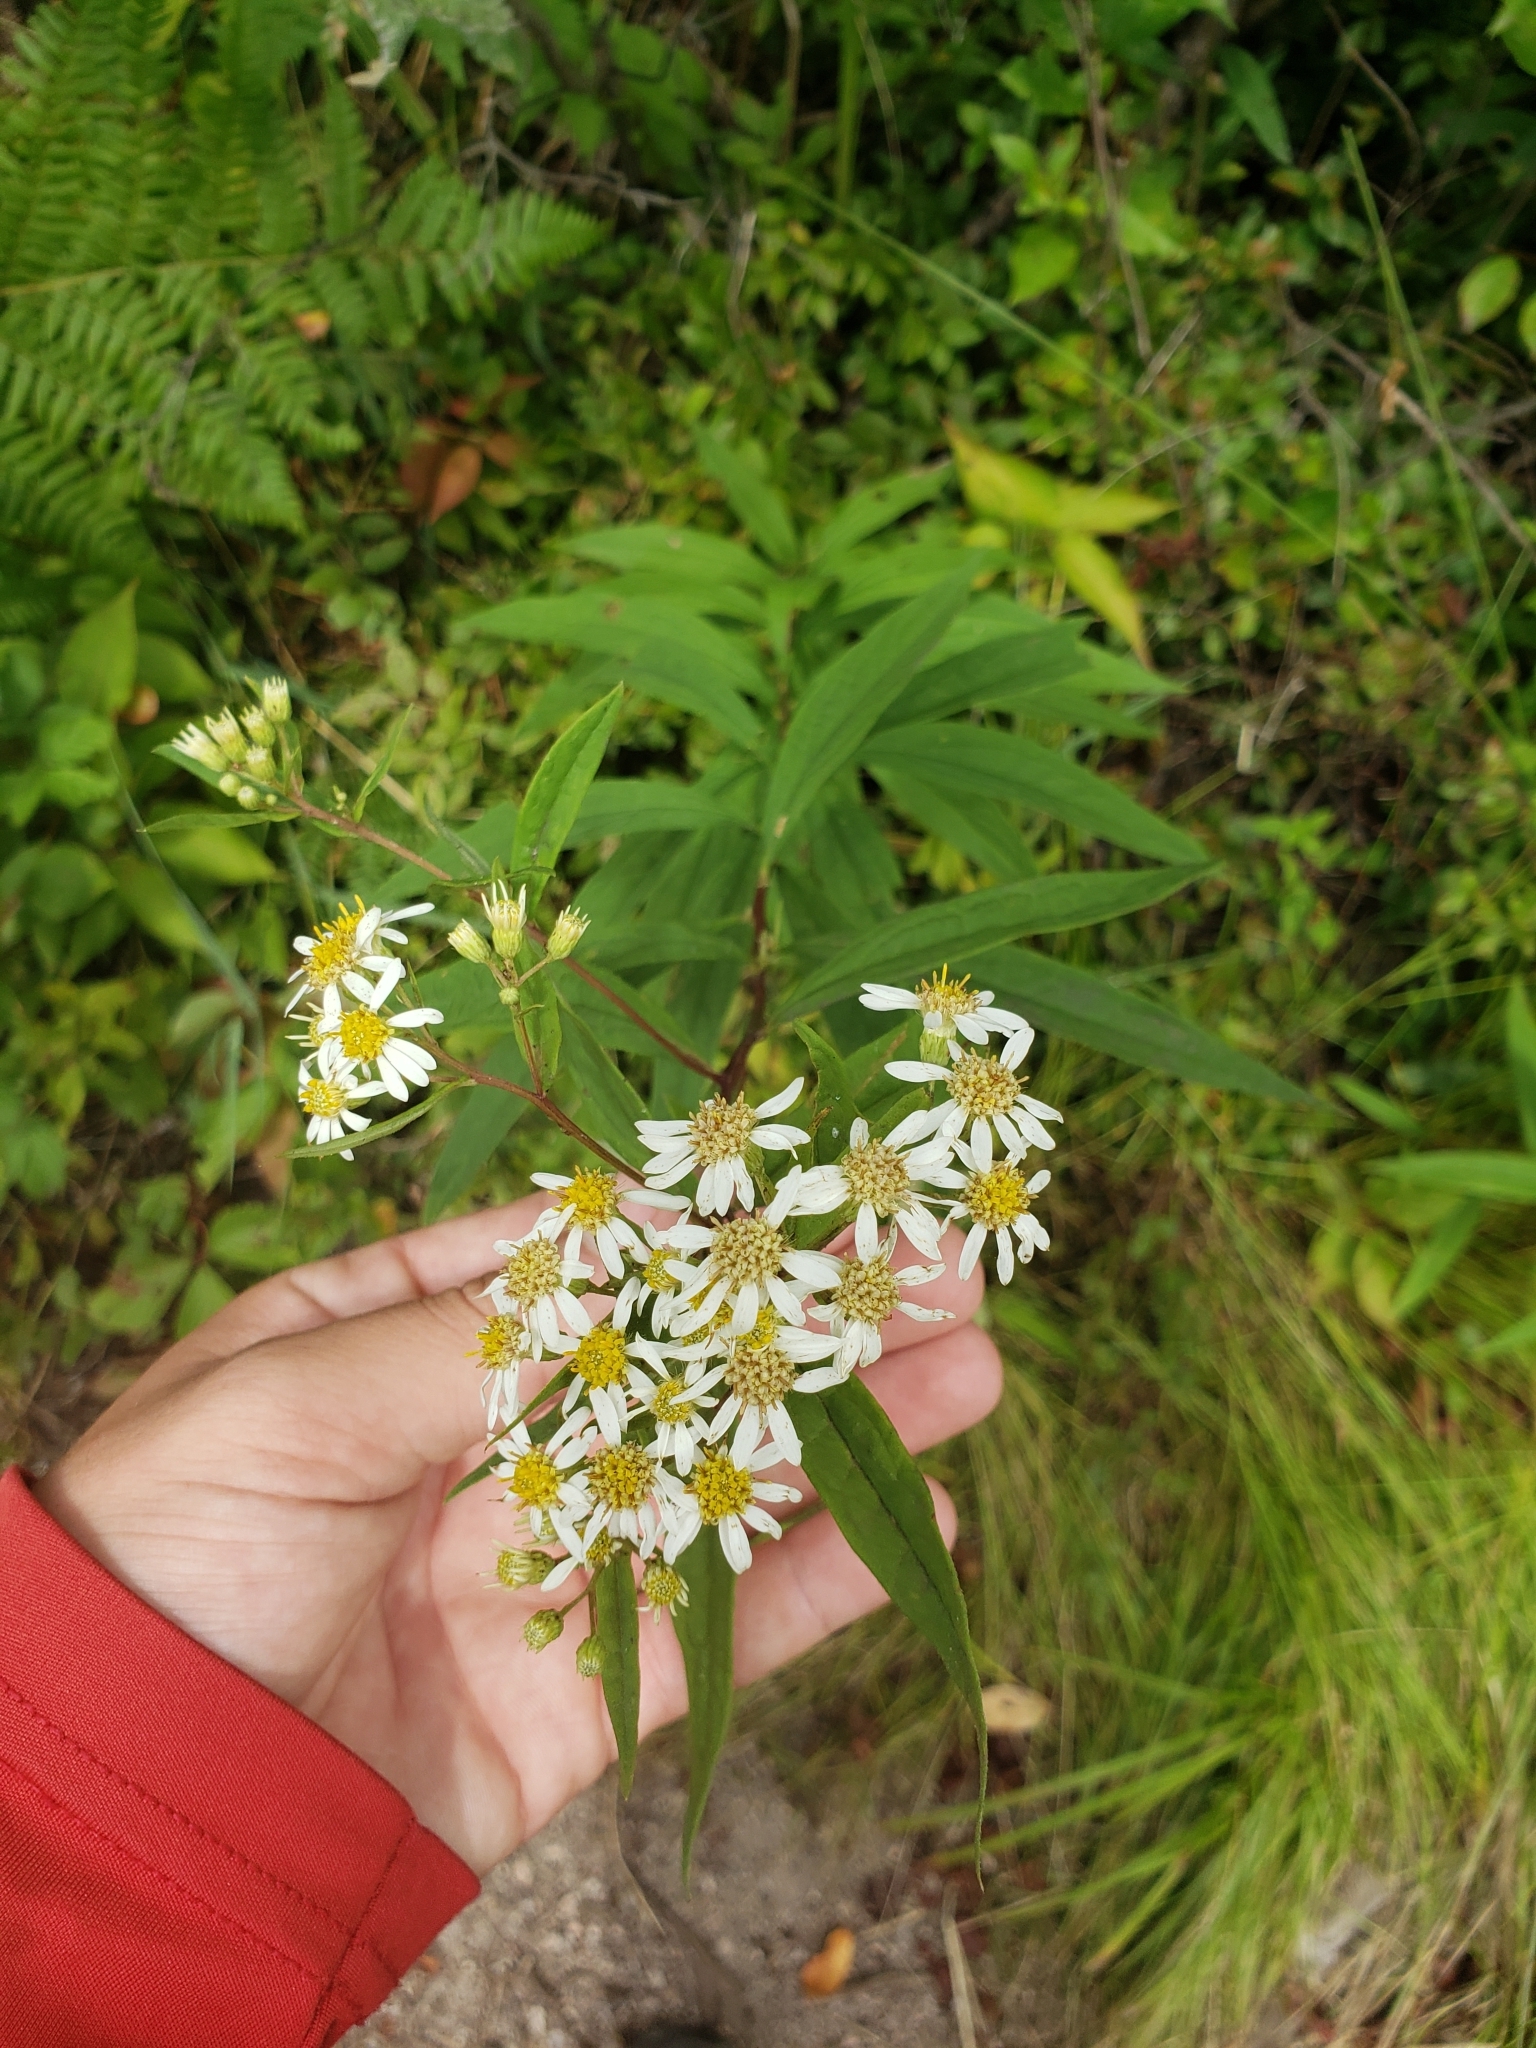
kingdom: Plantae
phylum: Tracheophyta
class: Magnoliopsida
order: Asterales
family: Asteraceae
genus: Doellingeria
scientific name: Doellingeria umbellata
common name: Flat-top white aster
